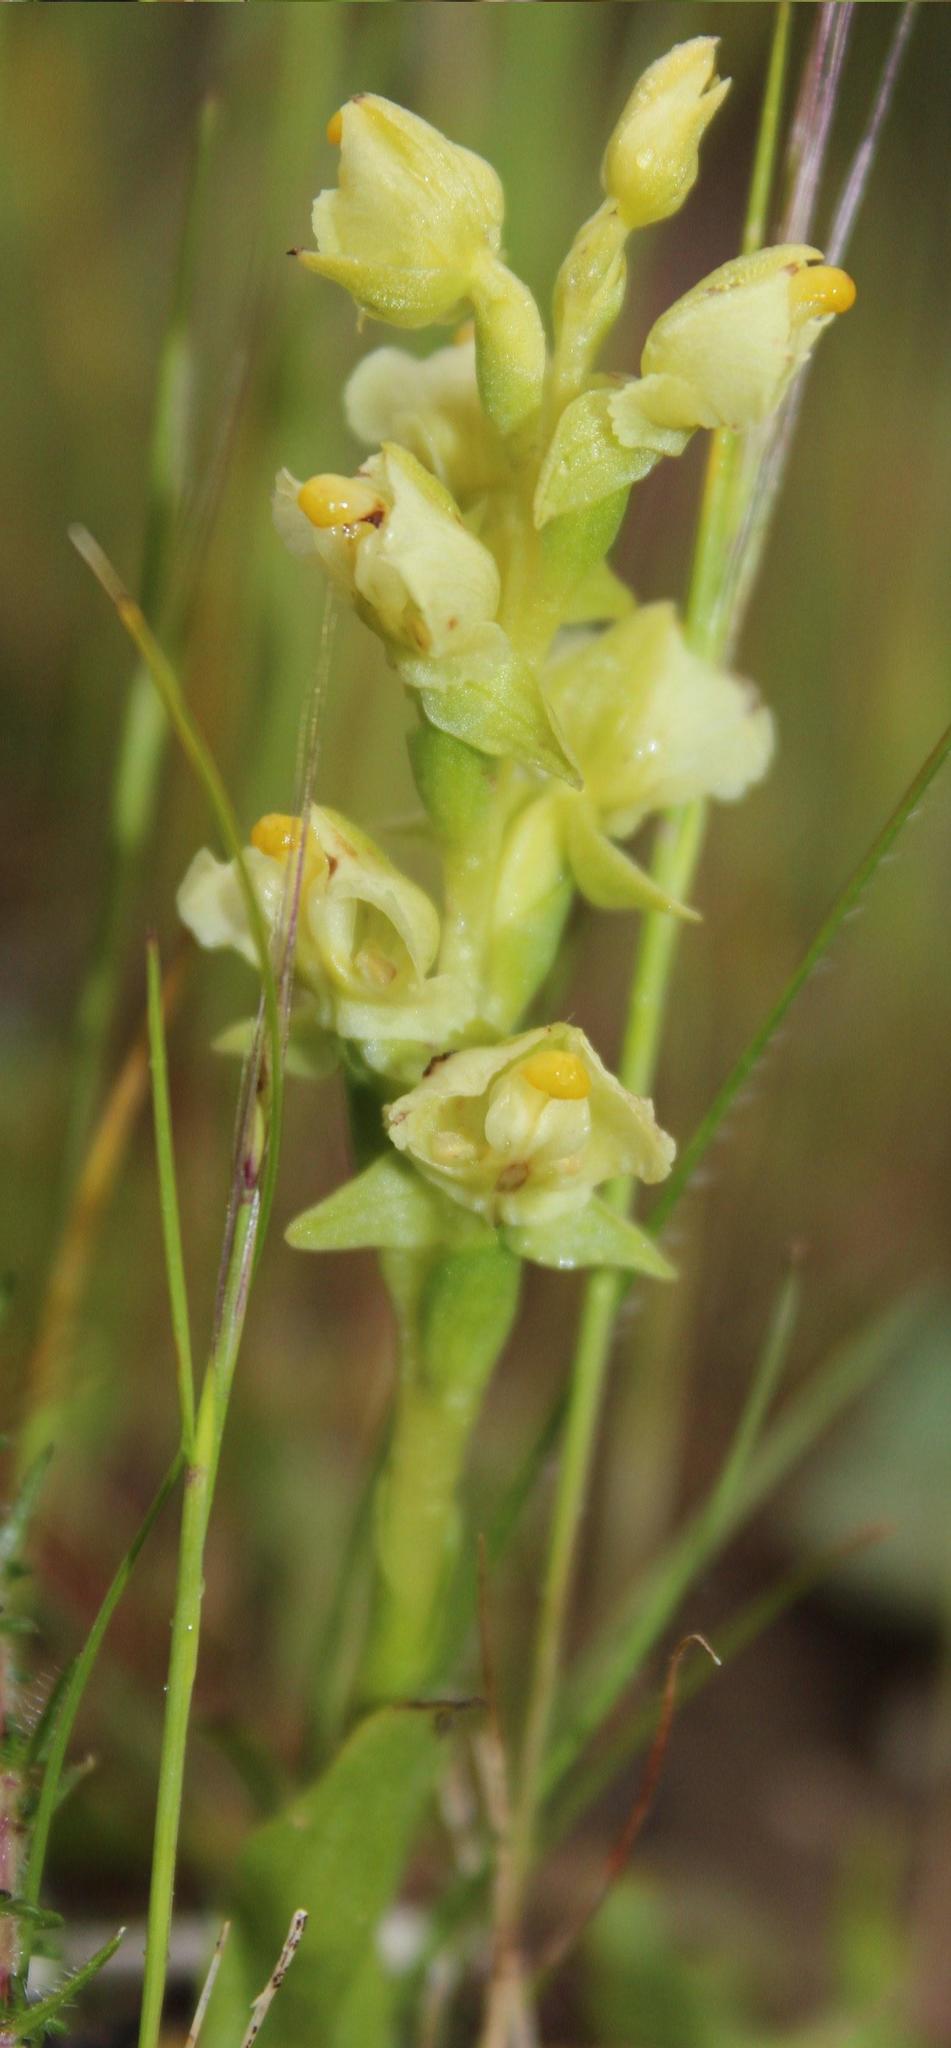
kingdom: Plantae
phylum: Tracheophyta
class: Liliopsida
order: Asparagales
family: Orchidaceae
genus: Pterygodium
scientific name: Pterygodium alatum
